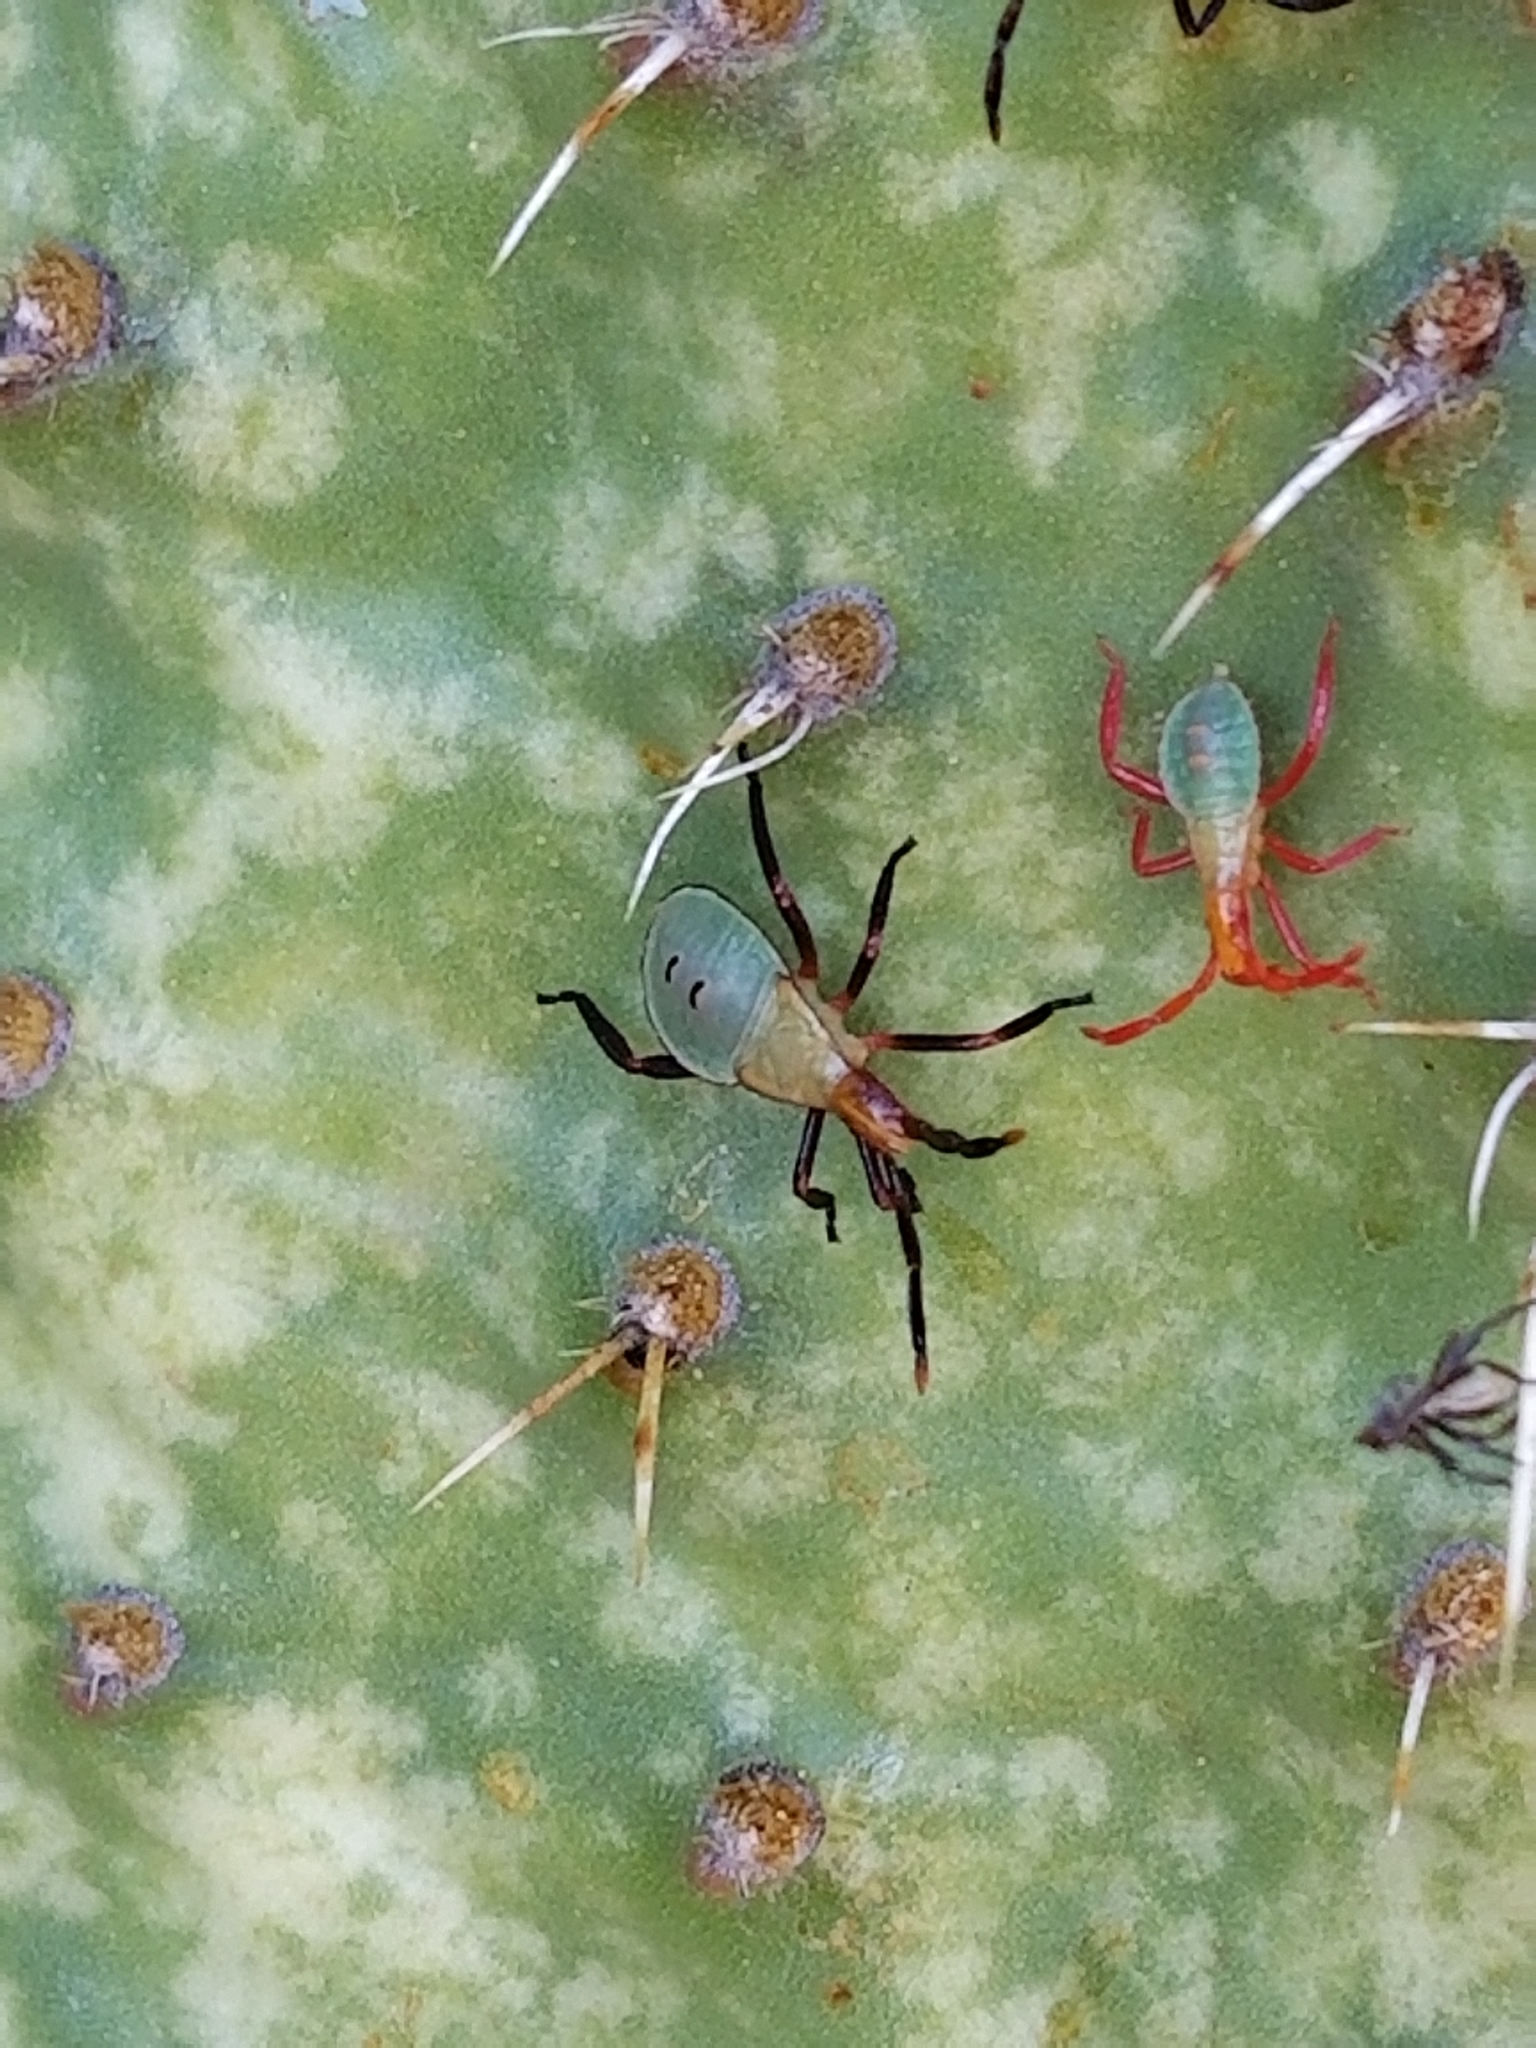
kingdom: Animalia
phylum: Arthropoda
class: Insecta
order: Hemiptera
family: Coreidae
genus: Chelinidea
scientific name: Chelinidea vittiger
